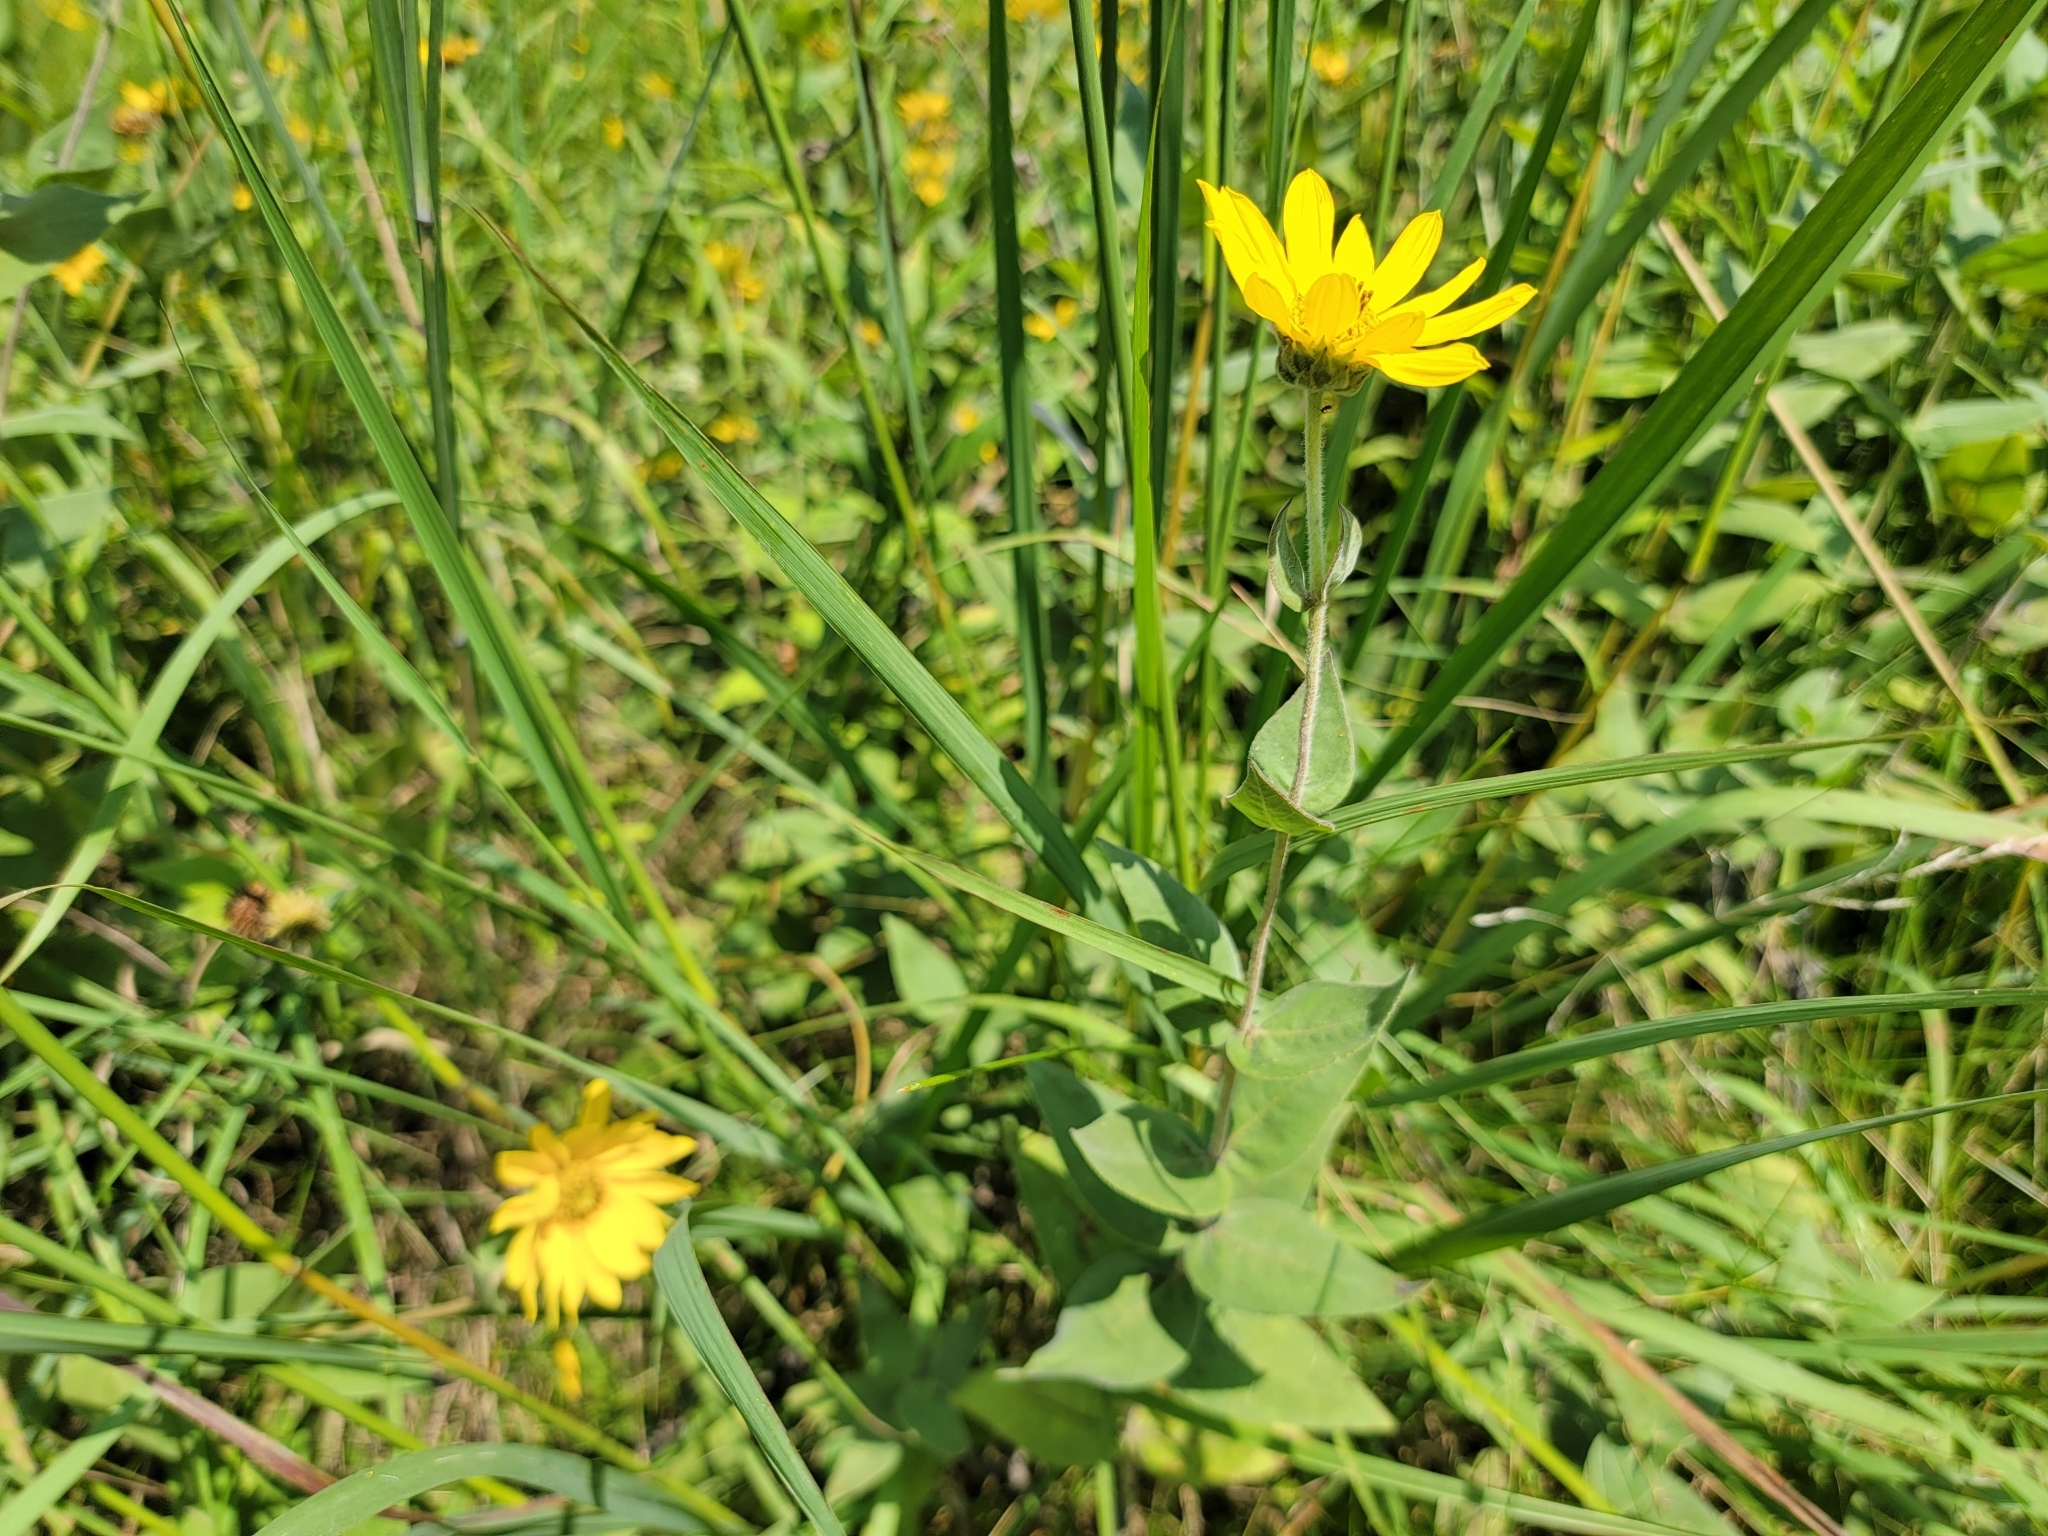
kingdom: Plantae
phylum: Tracheophyta
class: Magnoliopsida
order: Asterales
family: Asteraceae
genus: Helianthus
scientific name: Helianthus mollis
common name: Ashy sunflower
